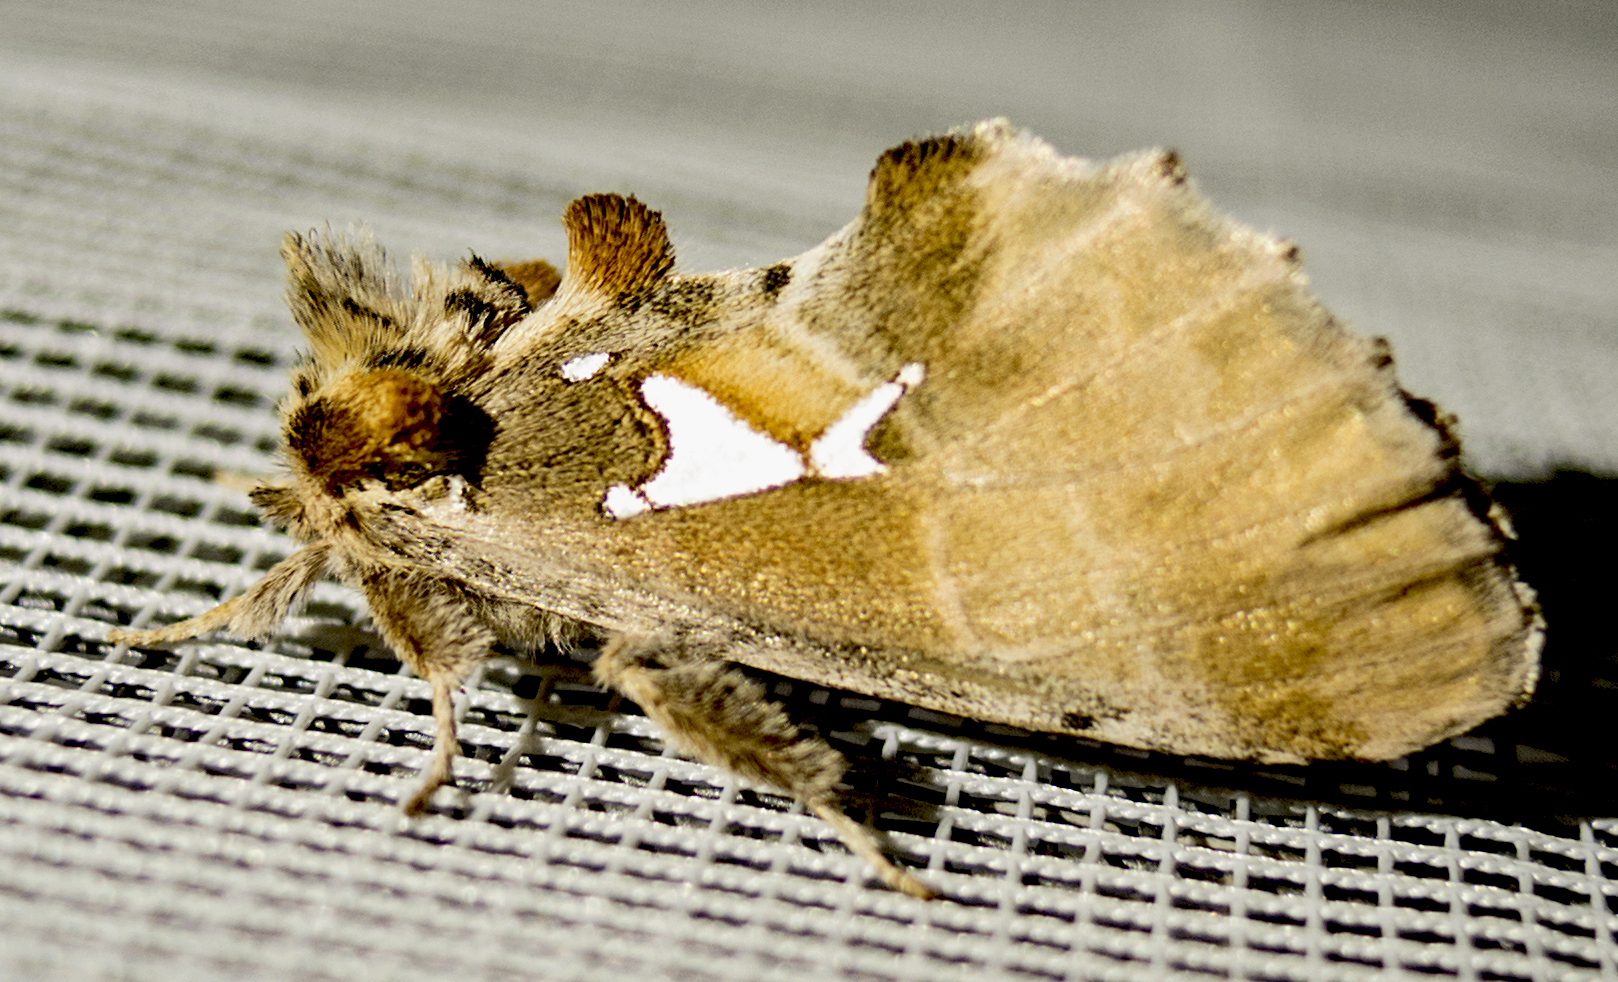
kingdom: Animalia
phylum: Arthropoda
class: Insecta
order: Lepidoptera
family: Notodontidae
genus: Spatalia
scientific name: Spatalia argentina
